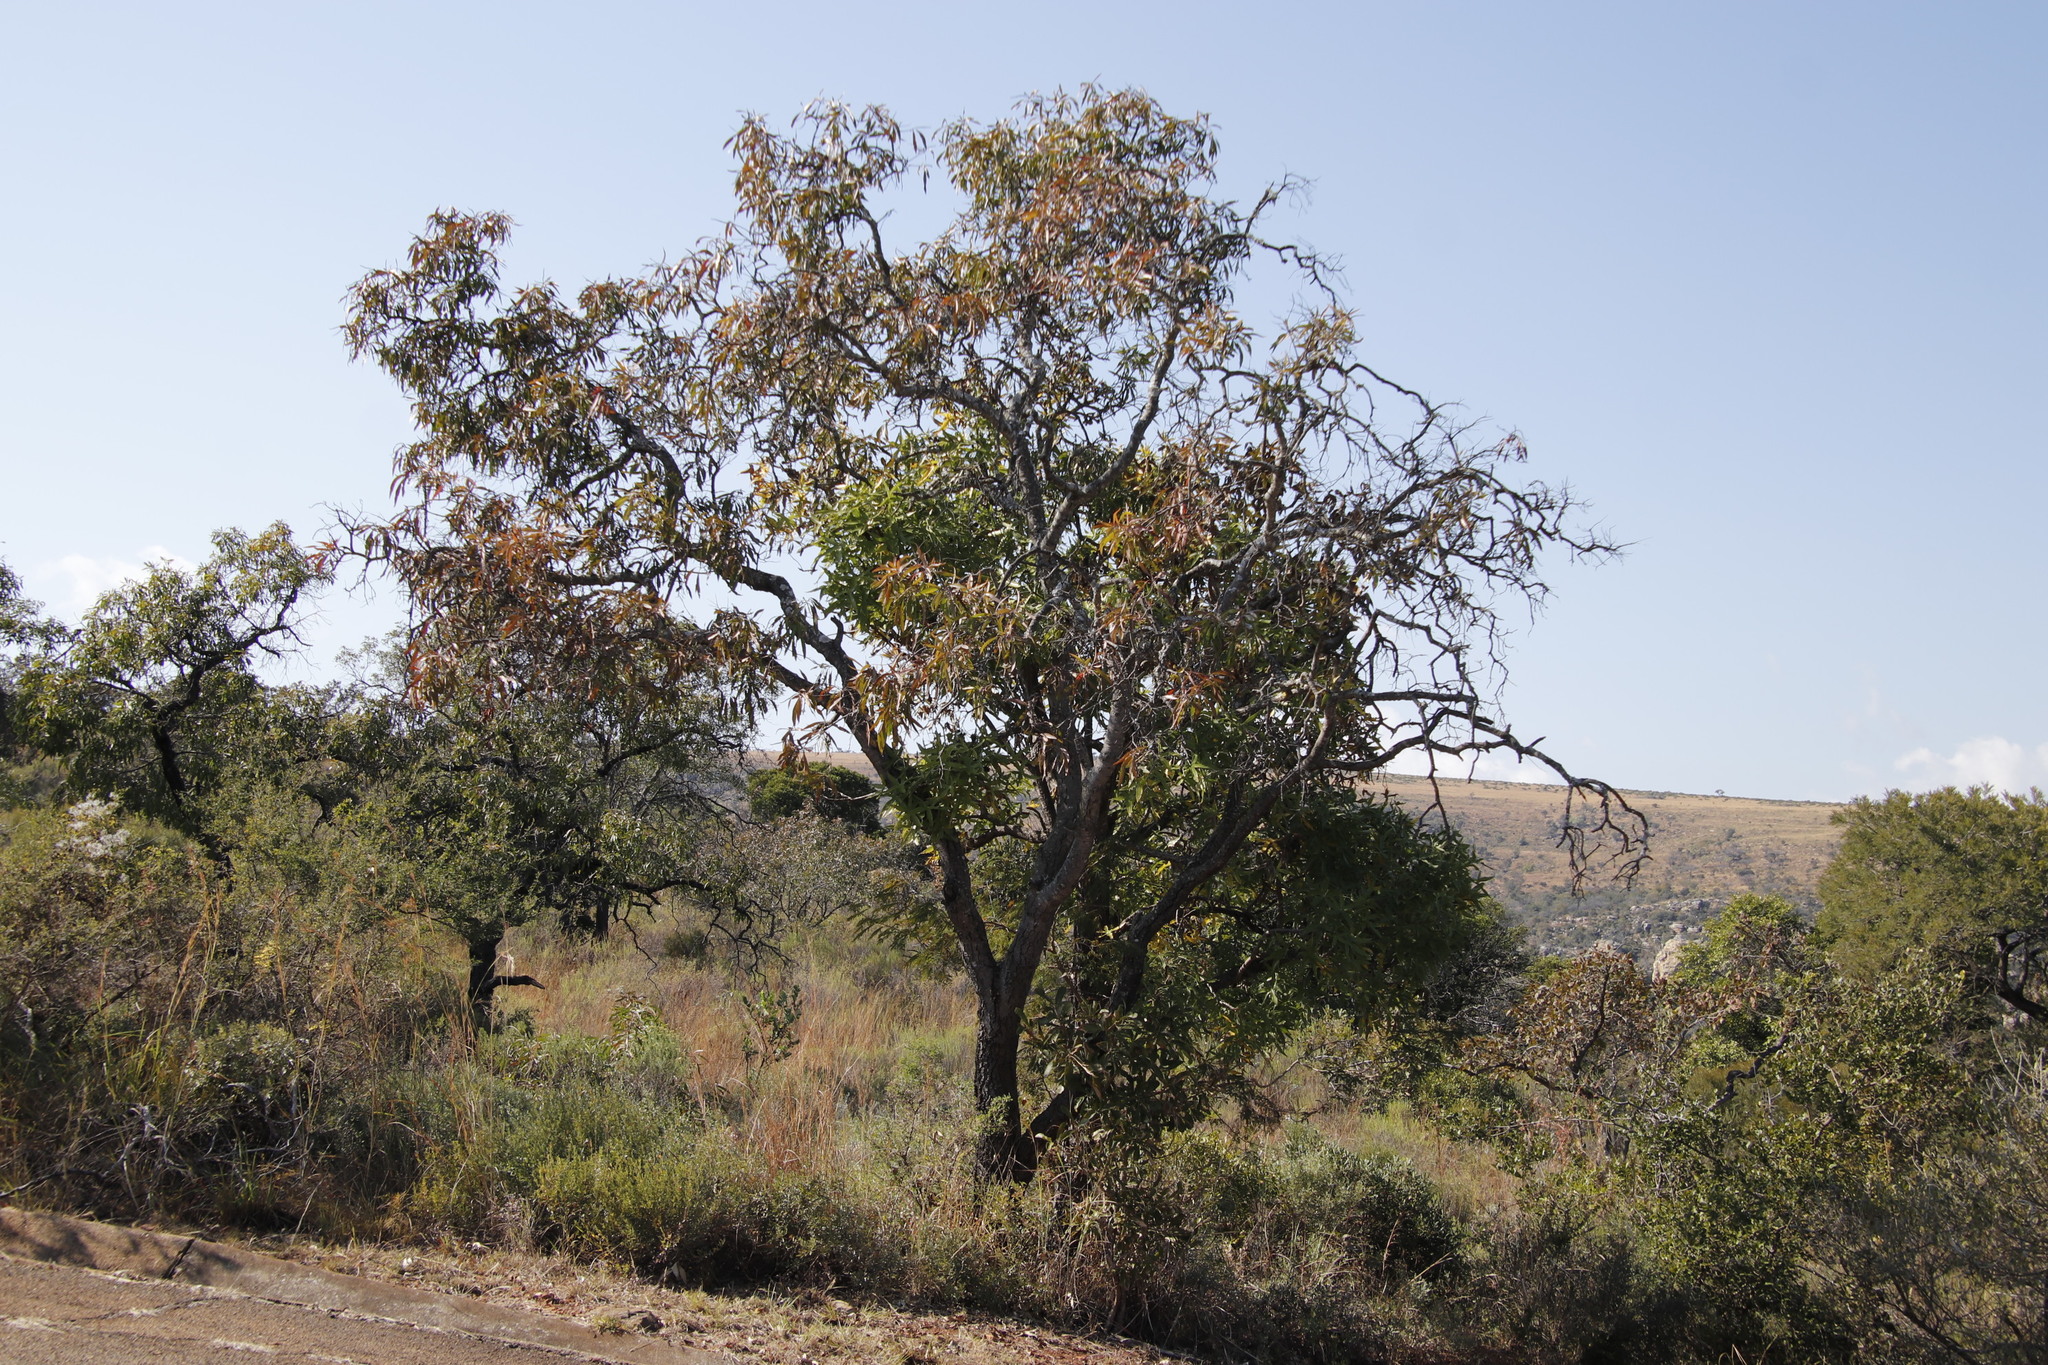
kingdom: Plantae
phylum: Tracheophyta
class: Magnoliopsida
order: Proteales
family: Proteaceae
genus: Faurea
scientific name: Faurea saligna
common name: African bean
